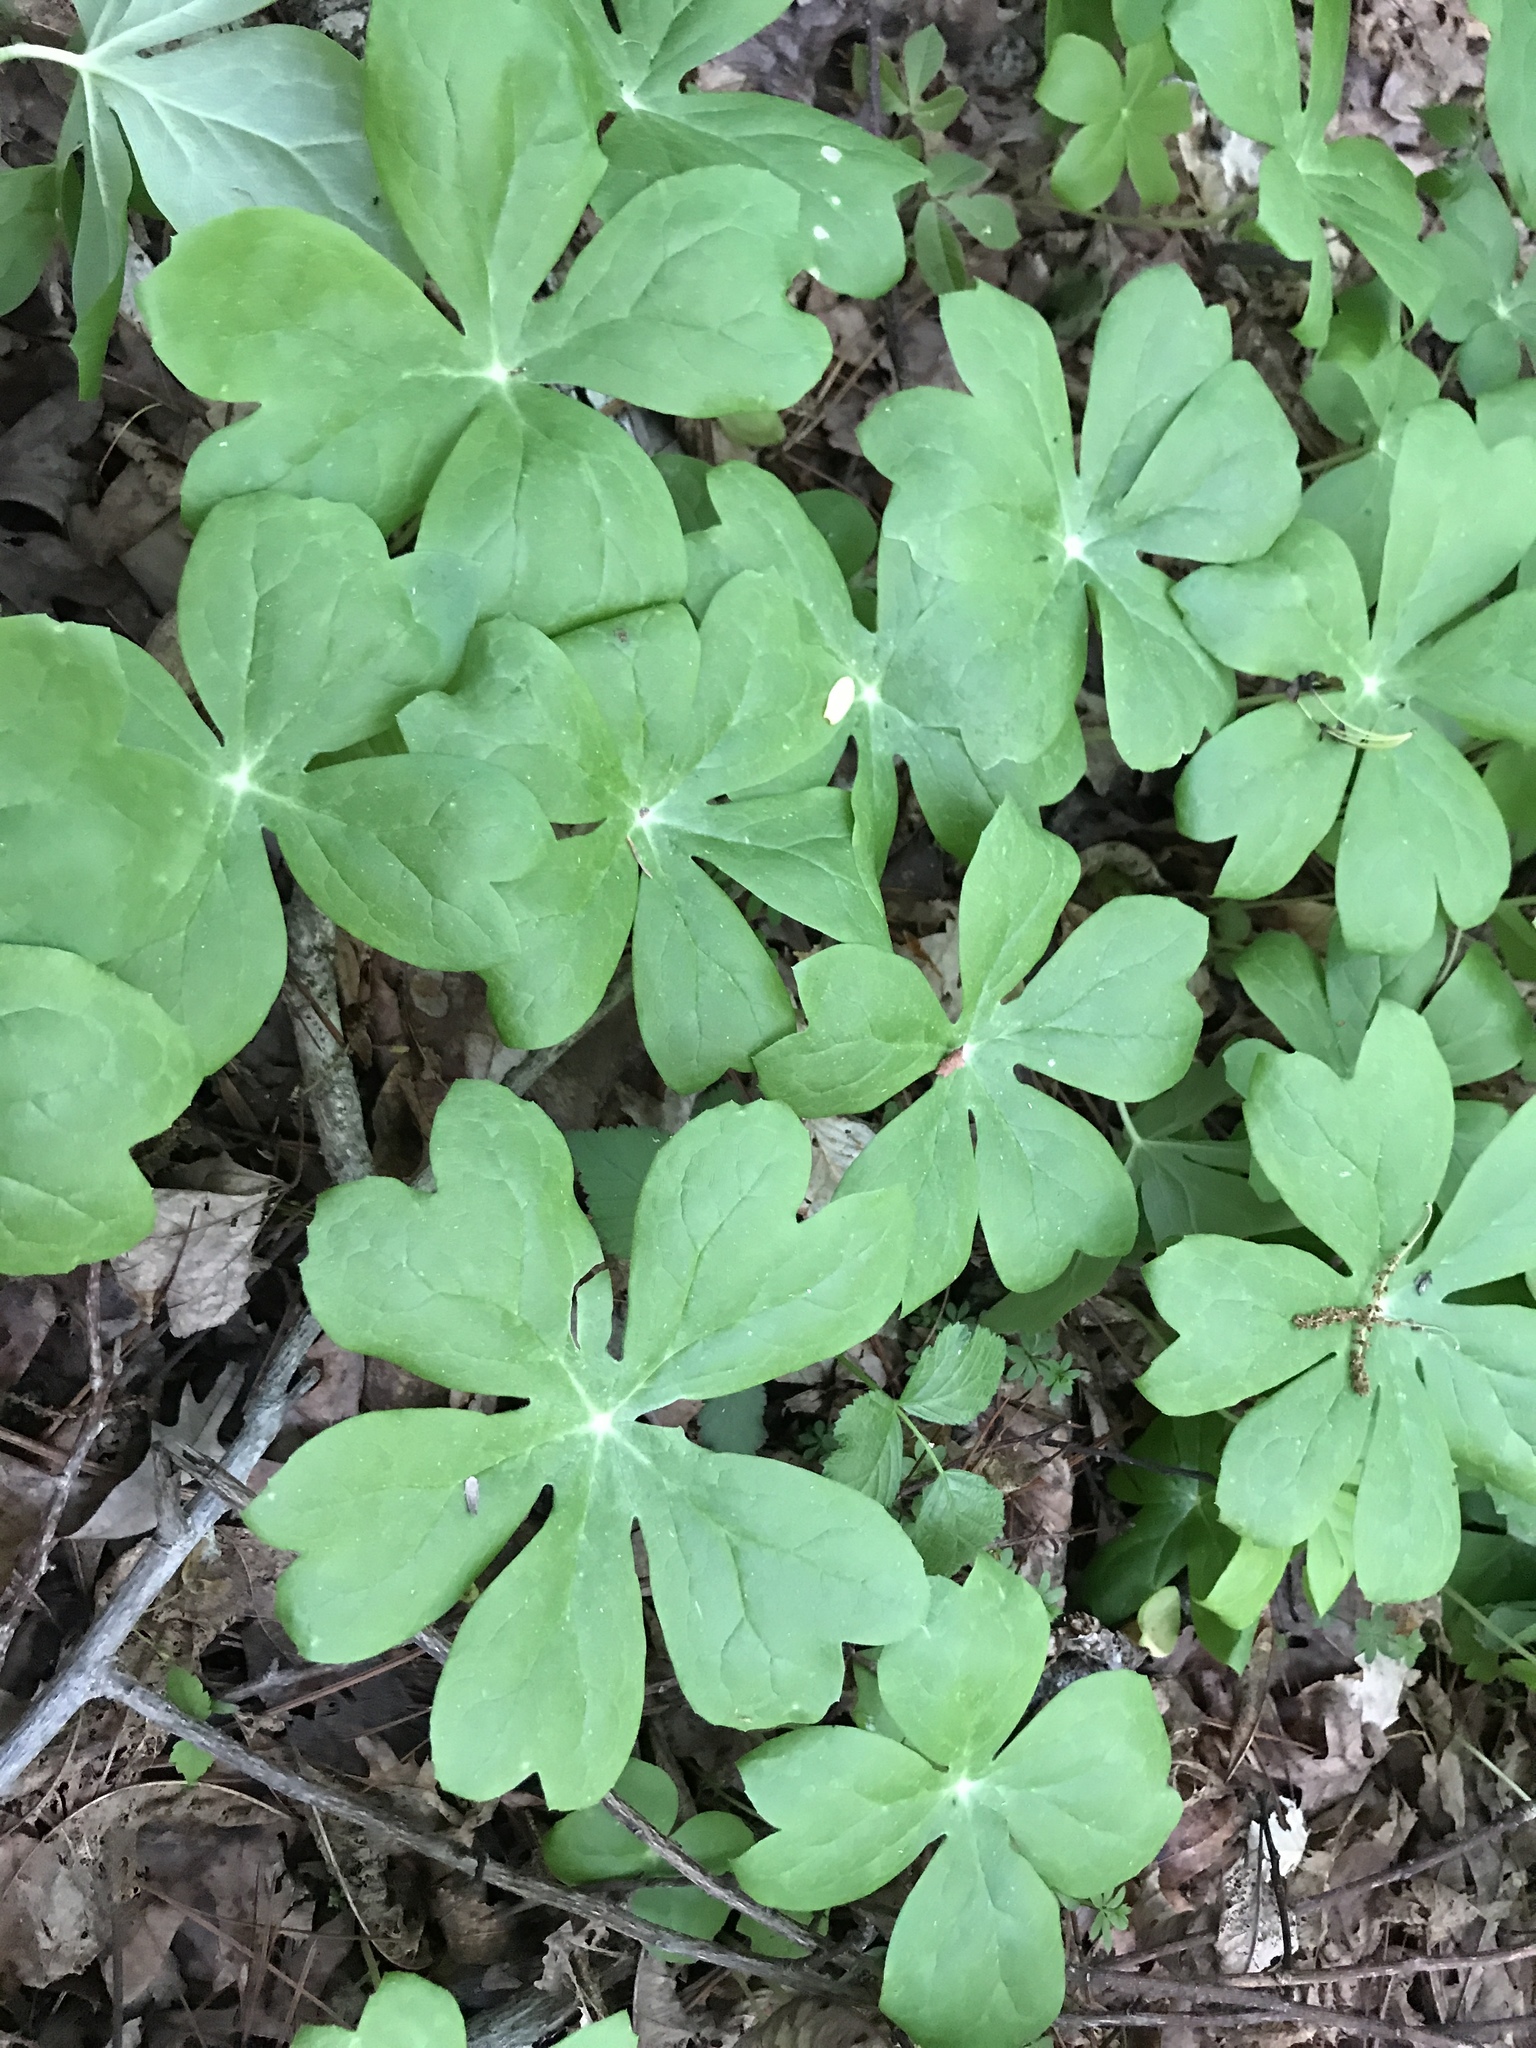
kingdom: Plantae
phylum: Tracheophyta
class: Magnoliopsida
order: Ranunculales
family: Berberidaceae
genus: Podophyllum
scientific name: Podophyllum peltatum
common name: Wild mandrake
